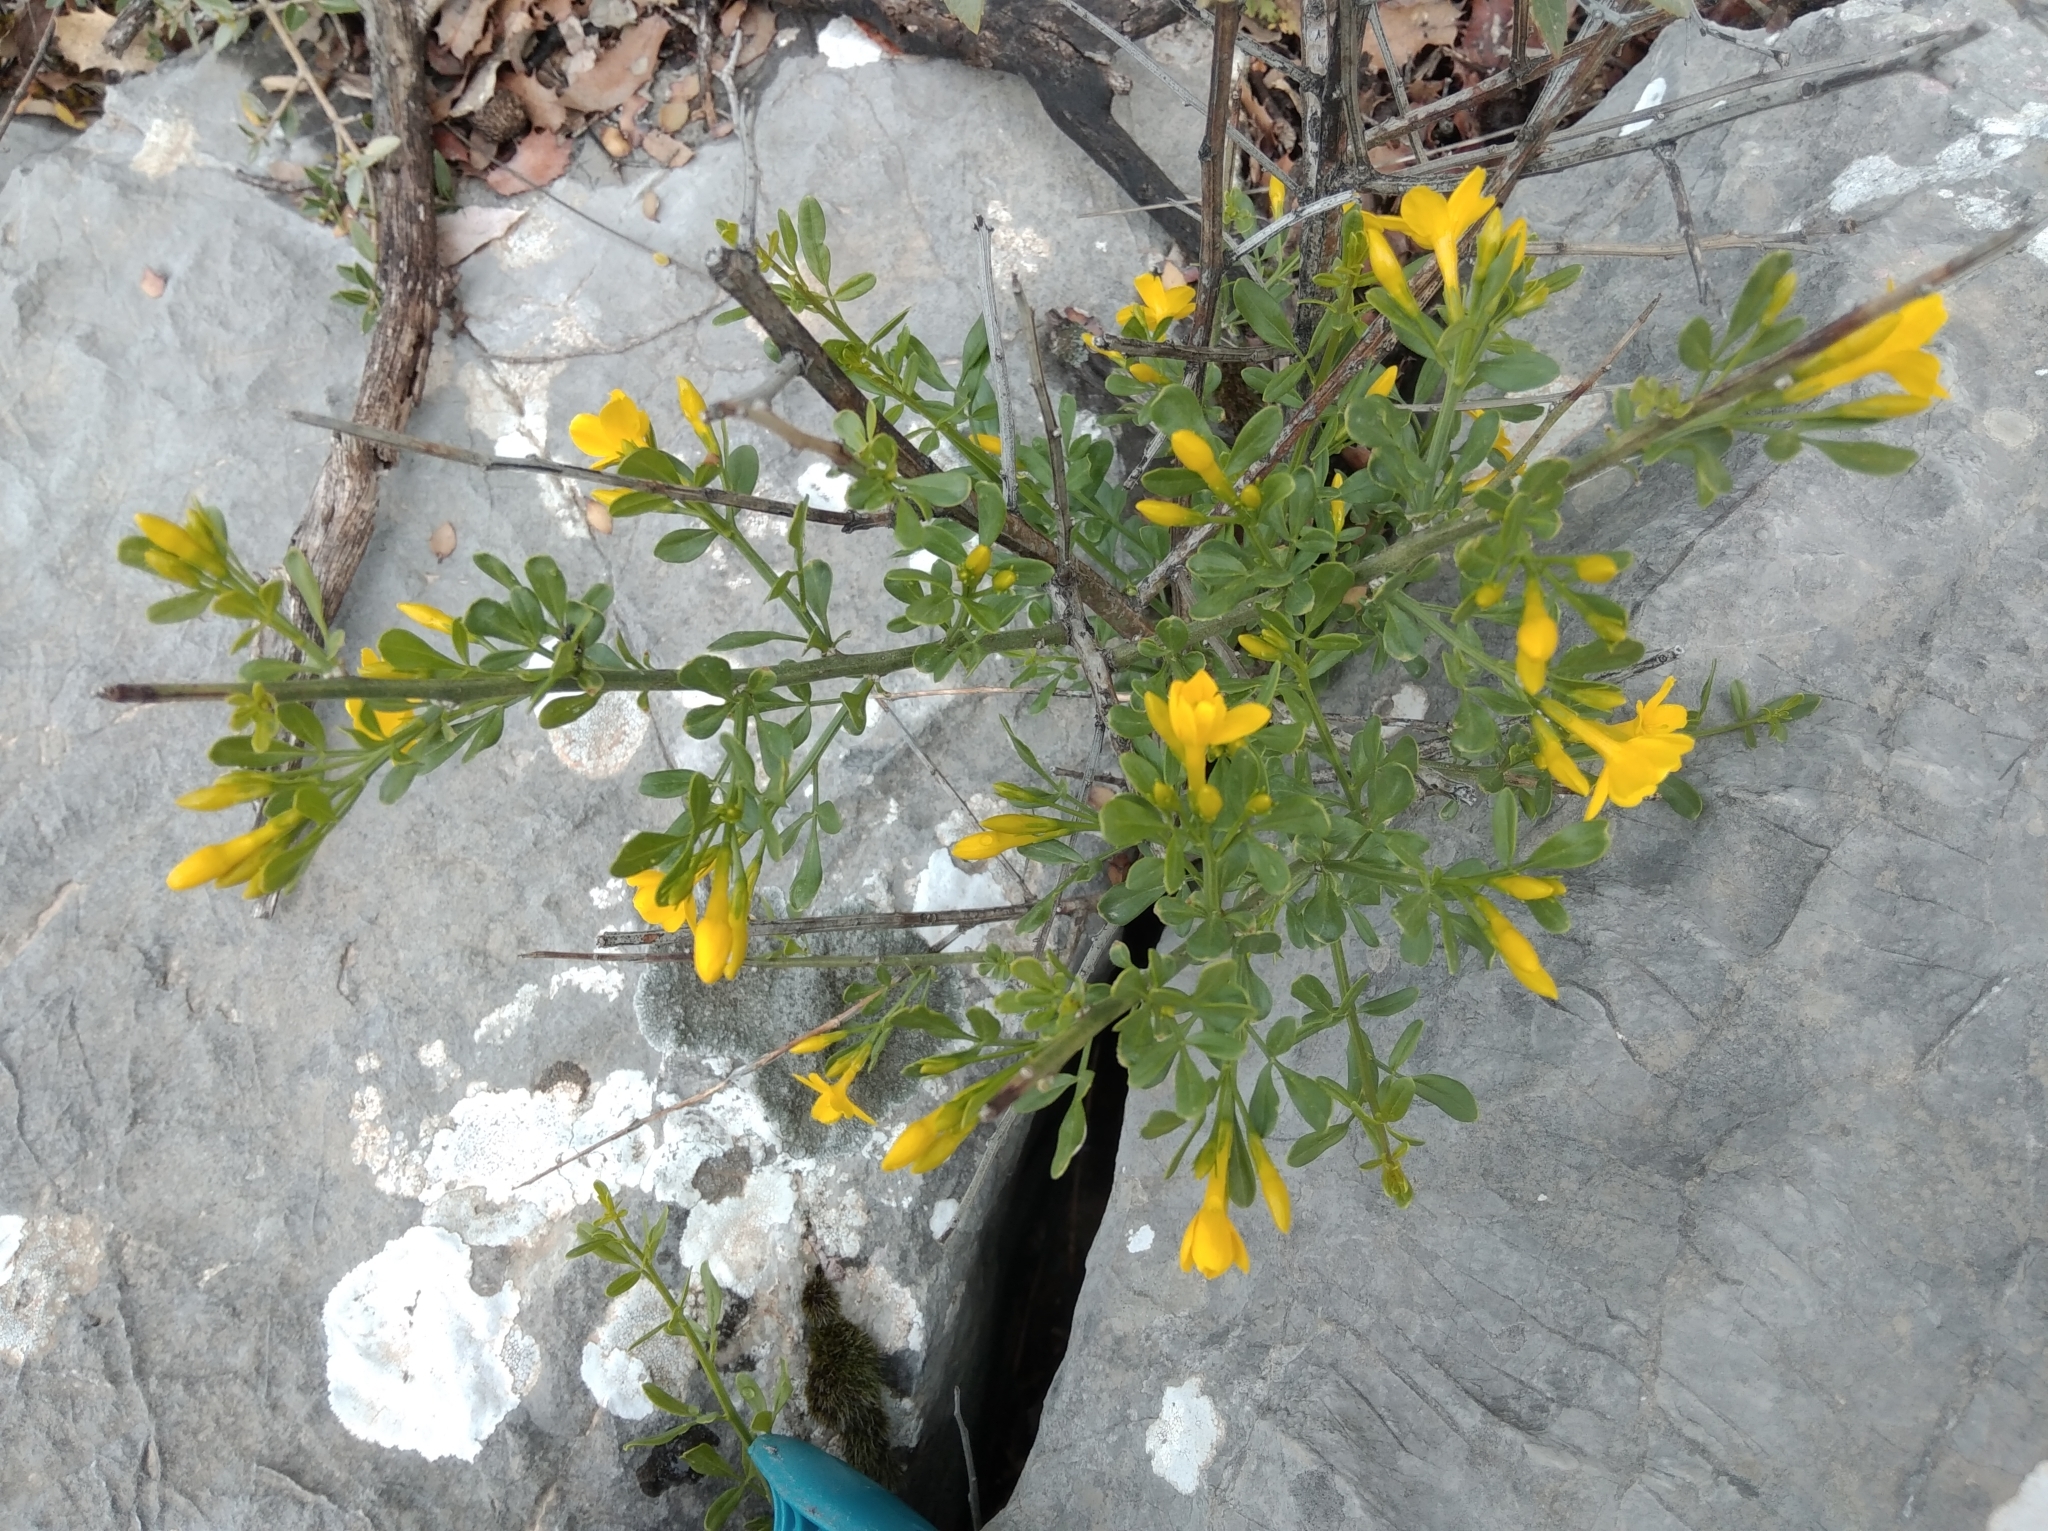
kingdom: Plantae
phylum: Tracheophyta
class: Magnoliopsida
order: Lamiales
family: Oleaceae
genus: Chrysojasminum
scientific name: Chrysojasminum fruticans
